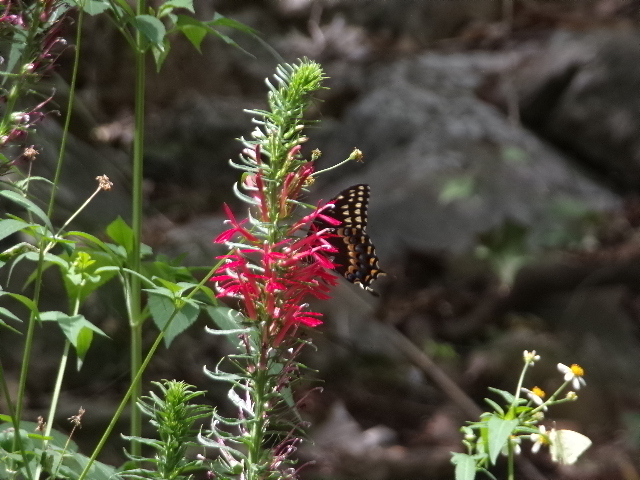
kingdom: Animalia
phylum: Arthropoda
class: Insecta
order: Lepidoptera
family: Papilionidae
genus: Papilio
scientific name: Papilio palamedes
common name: Palamedes swallowtail
